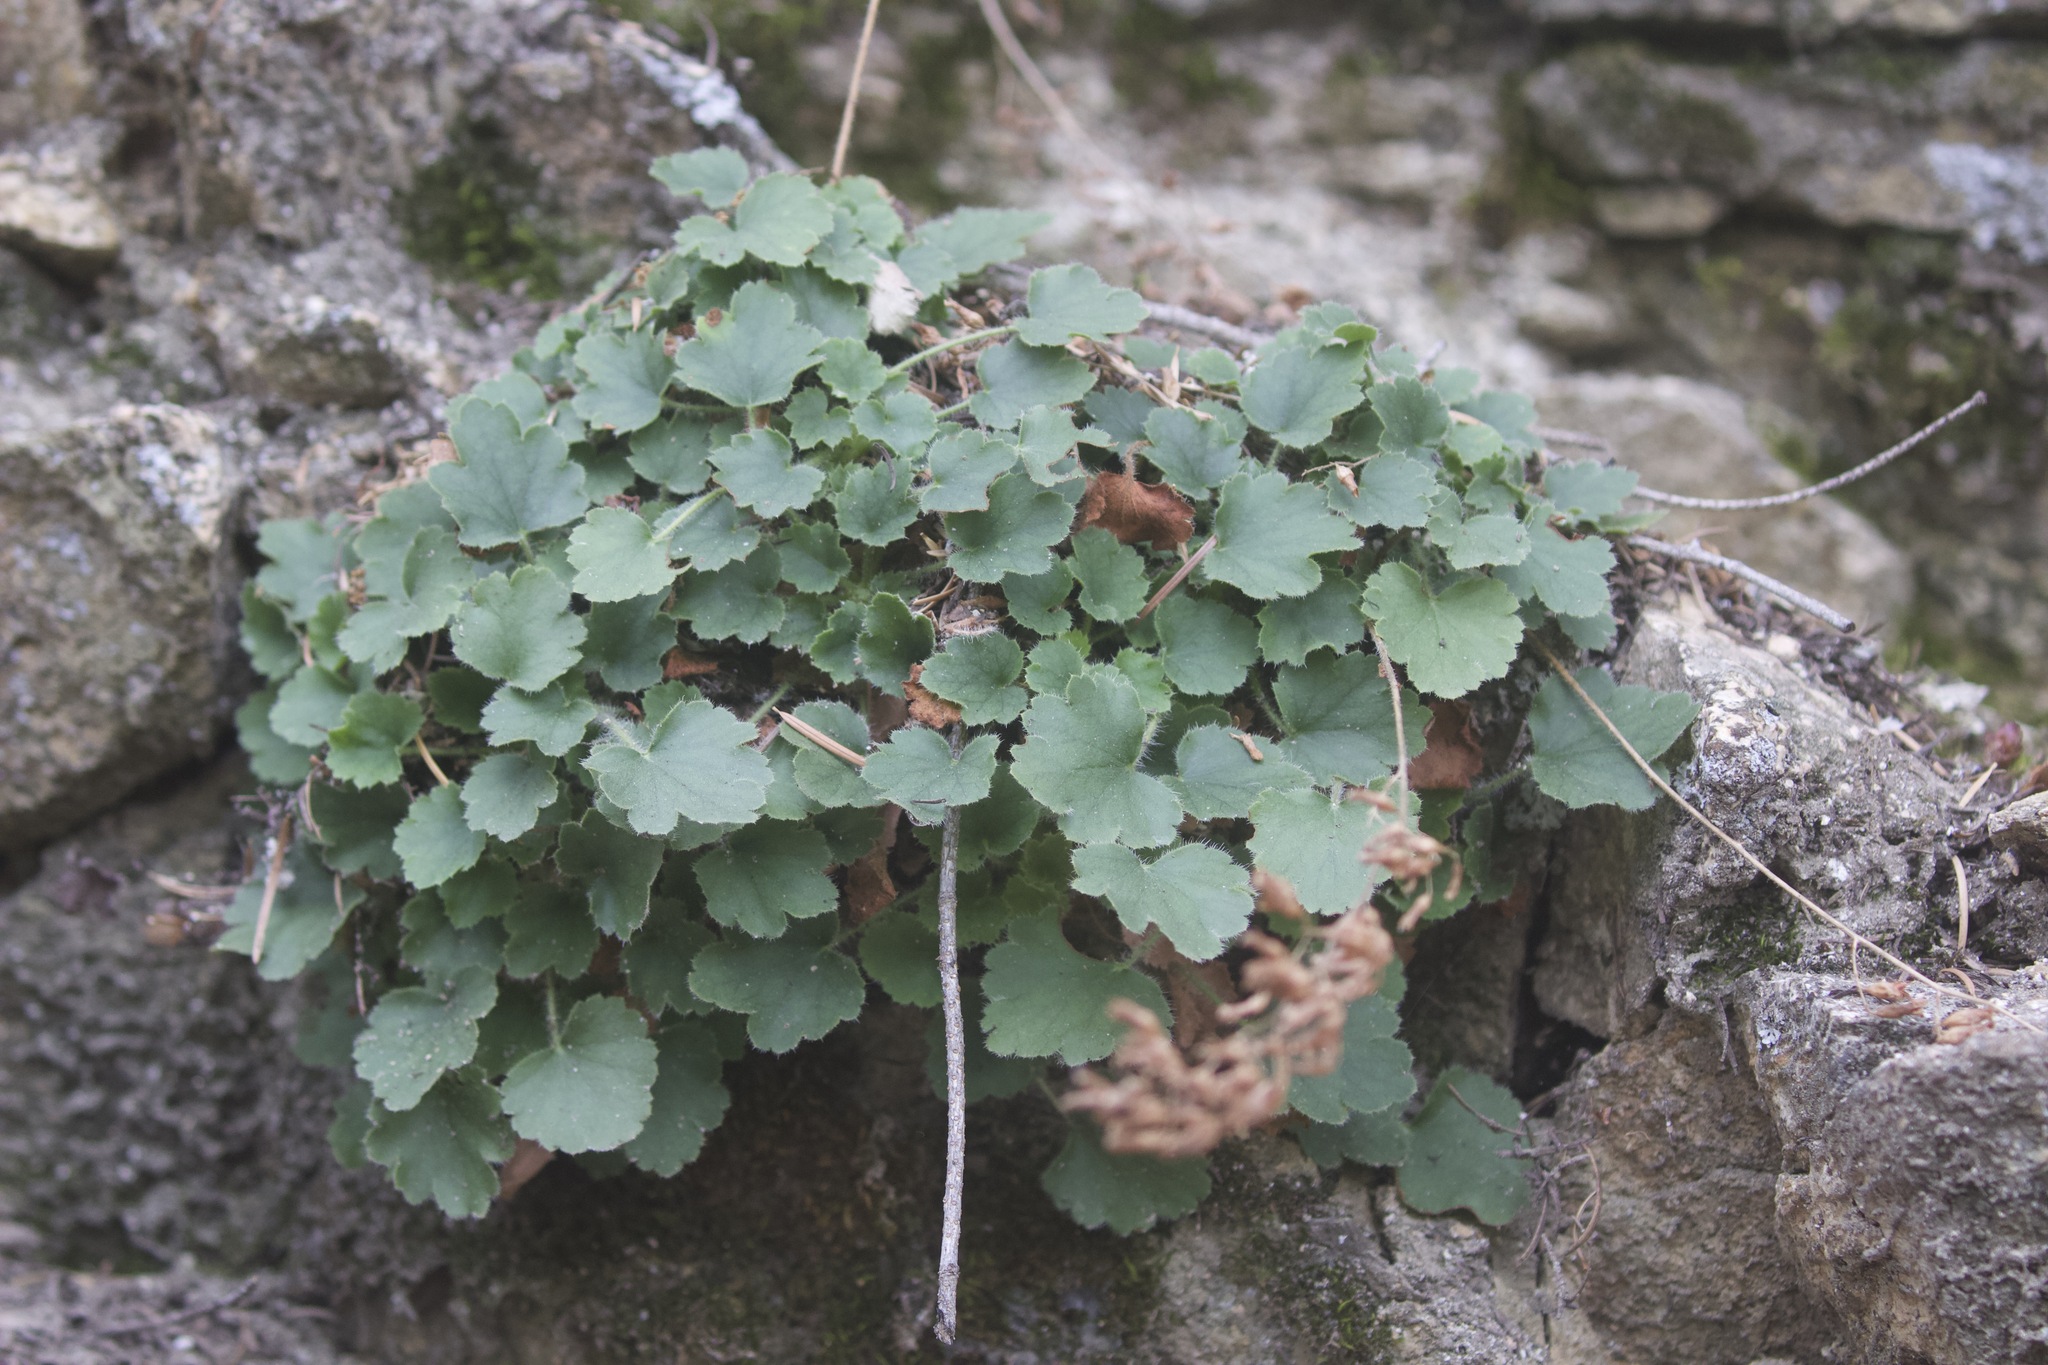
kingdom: Plantae
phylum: Tracheophyta
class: Magnoliopsida
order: Saxifragales
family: Saxifragaceae
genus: Heuchera
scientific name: Heuchera elegans
